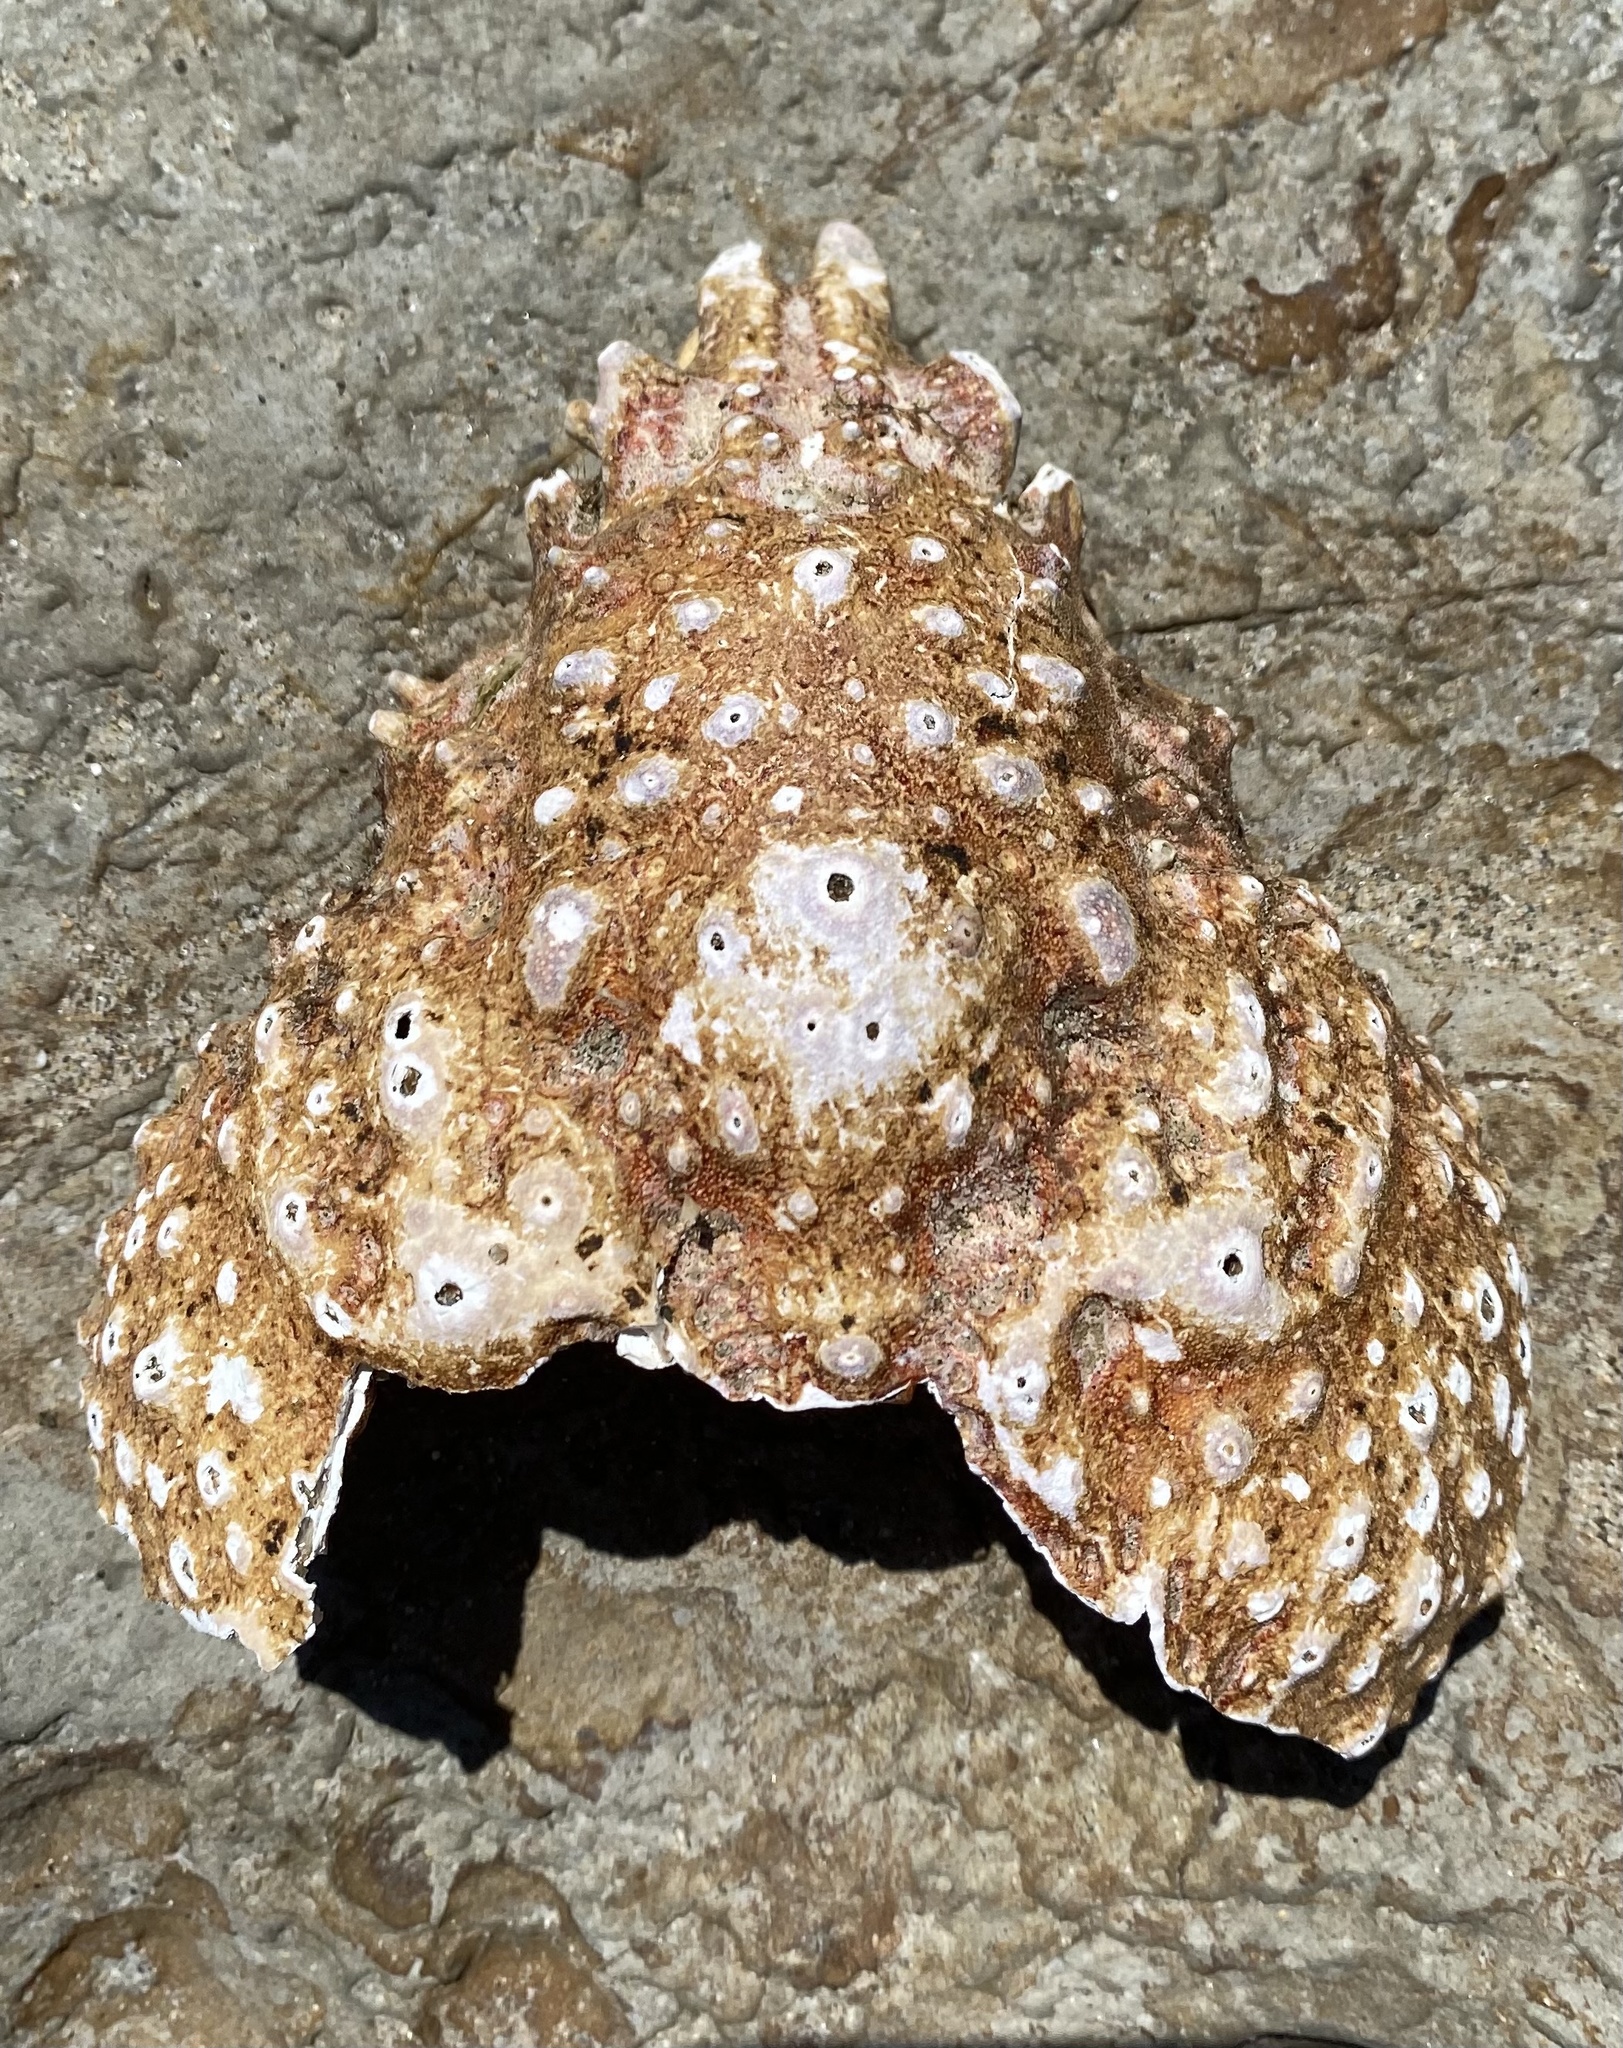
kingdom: Animalia
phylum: Arthropoda
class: Malacostraca
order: Decapoda
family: Epialtidae
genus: Loxorhynchus
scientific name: Loxorhynchus grandis
